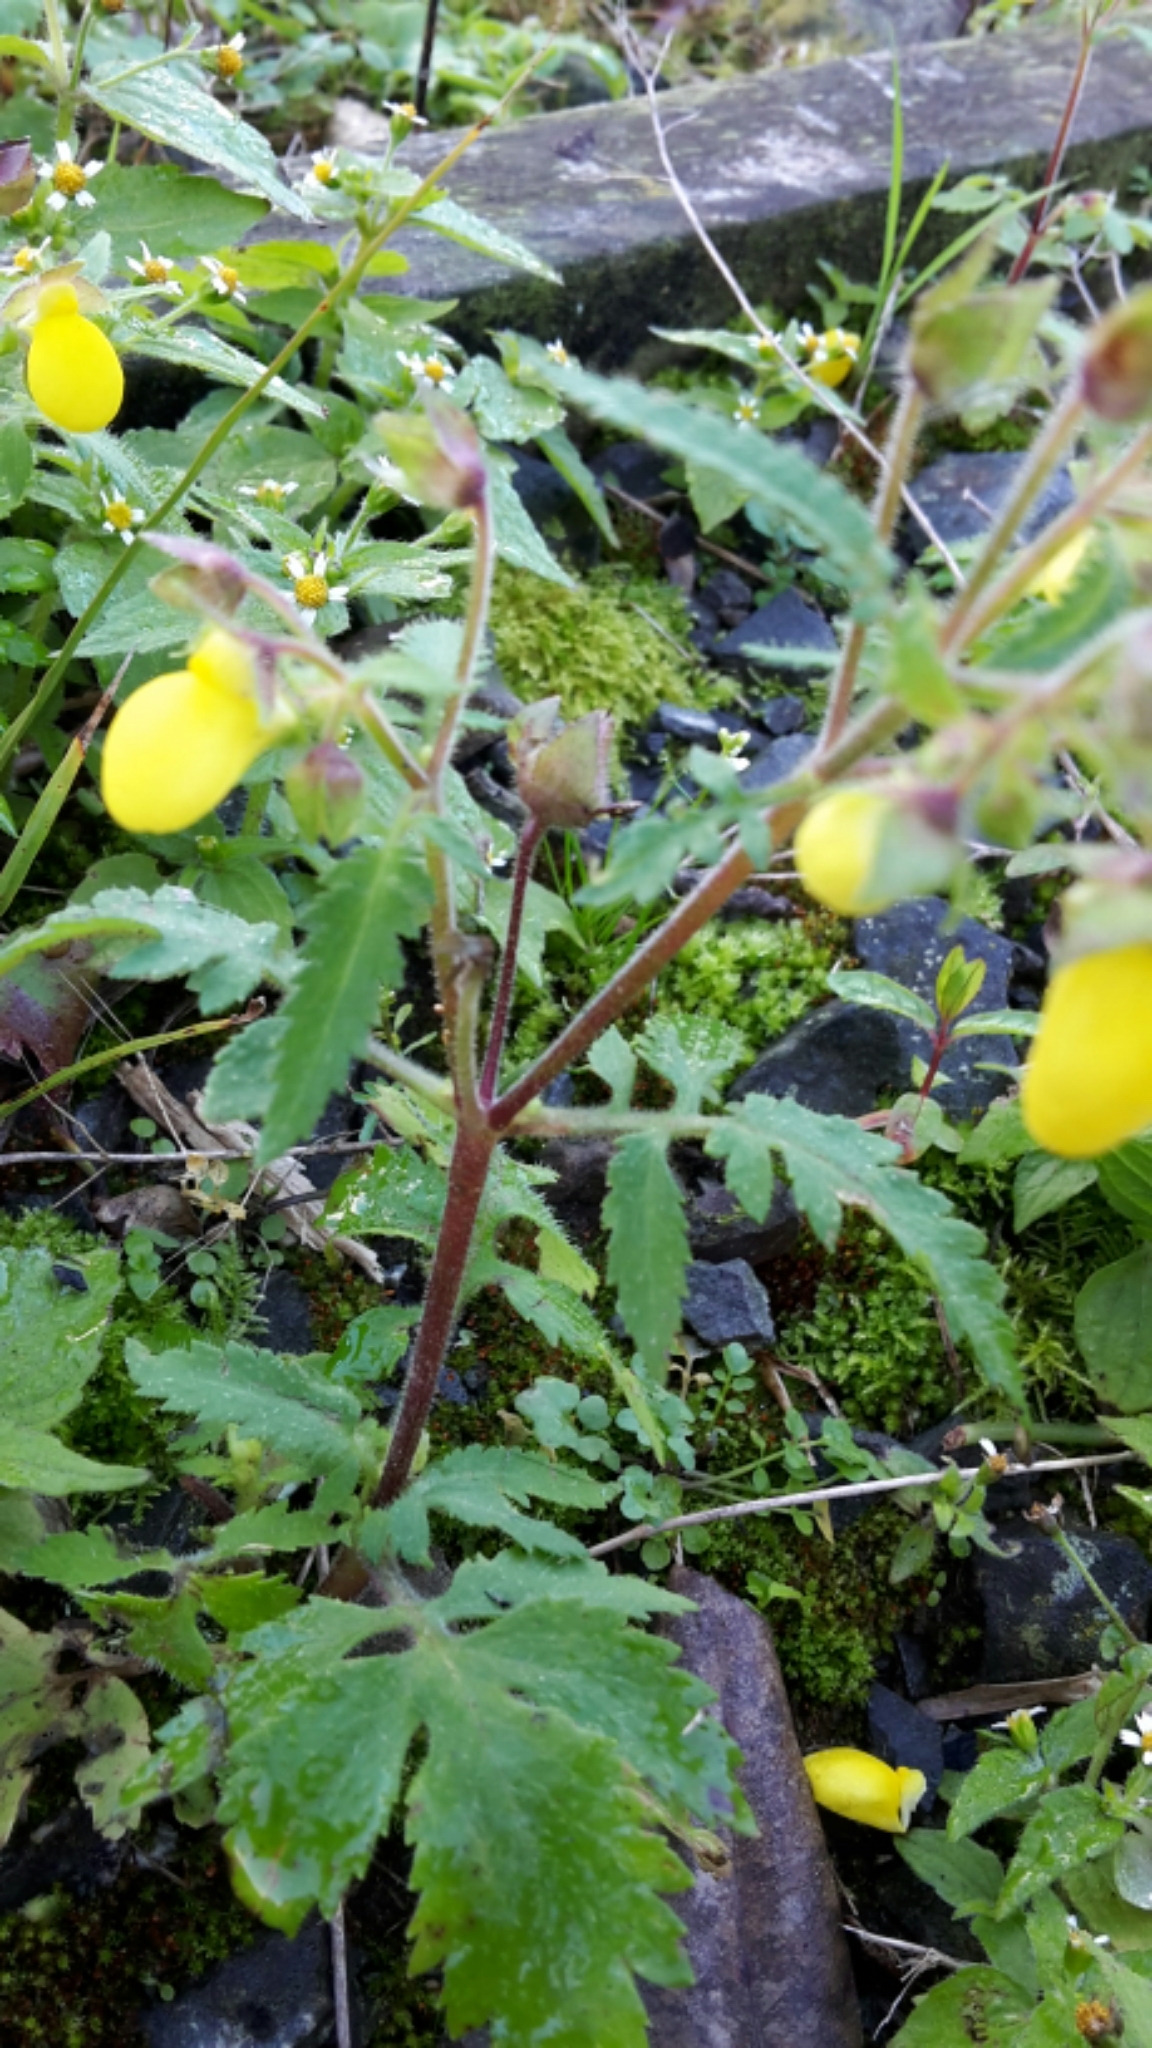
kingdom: Plantae
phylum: Tracheophyta
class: Magnoliopsida
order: Lamiales
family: Calceolariaceae
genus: Calceolaria
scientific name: Calceolaria tripartita
